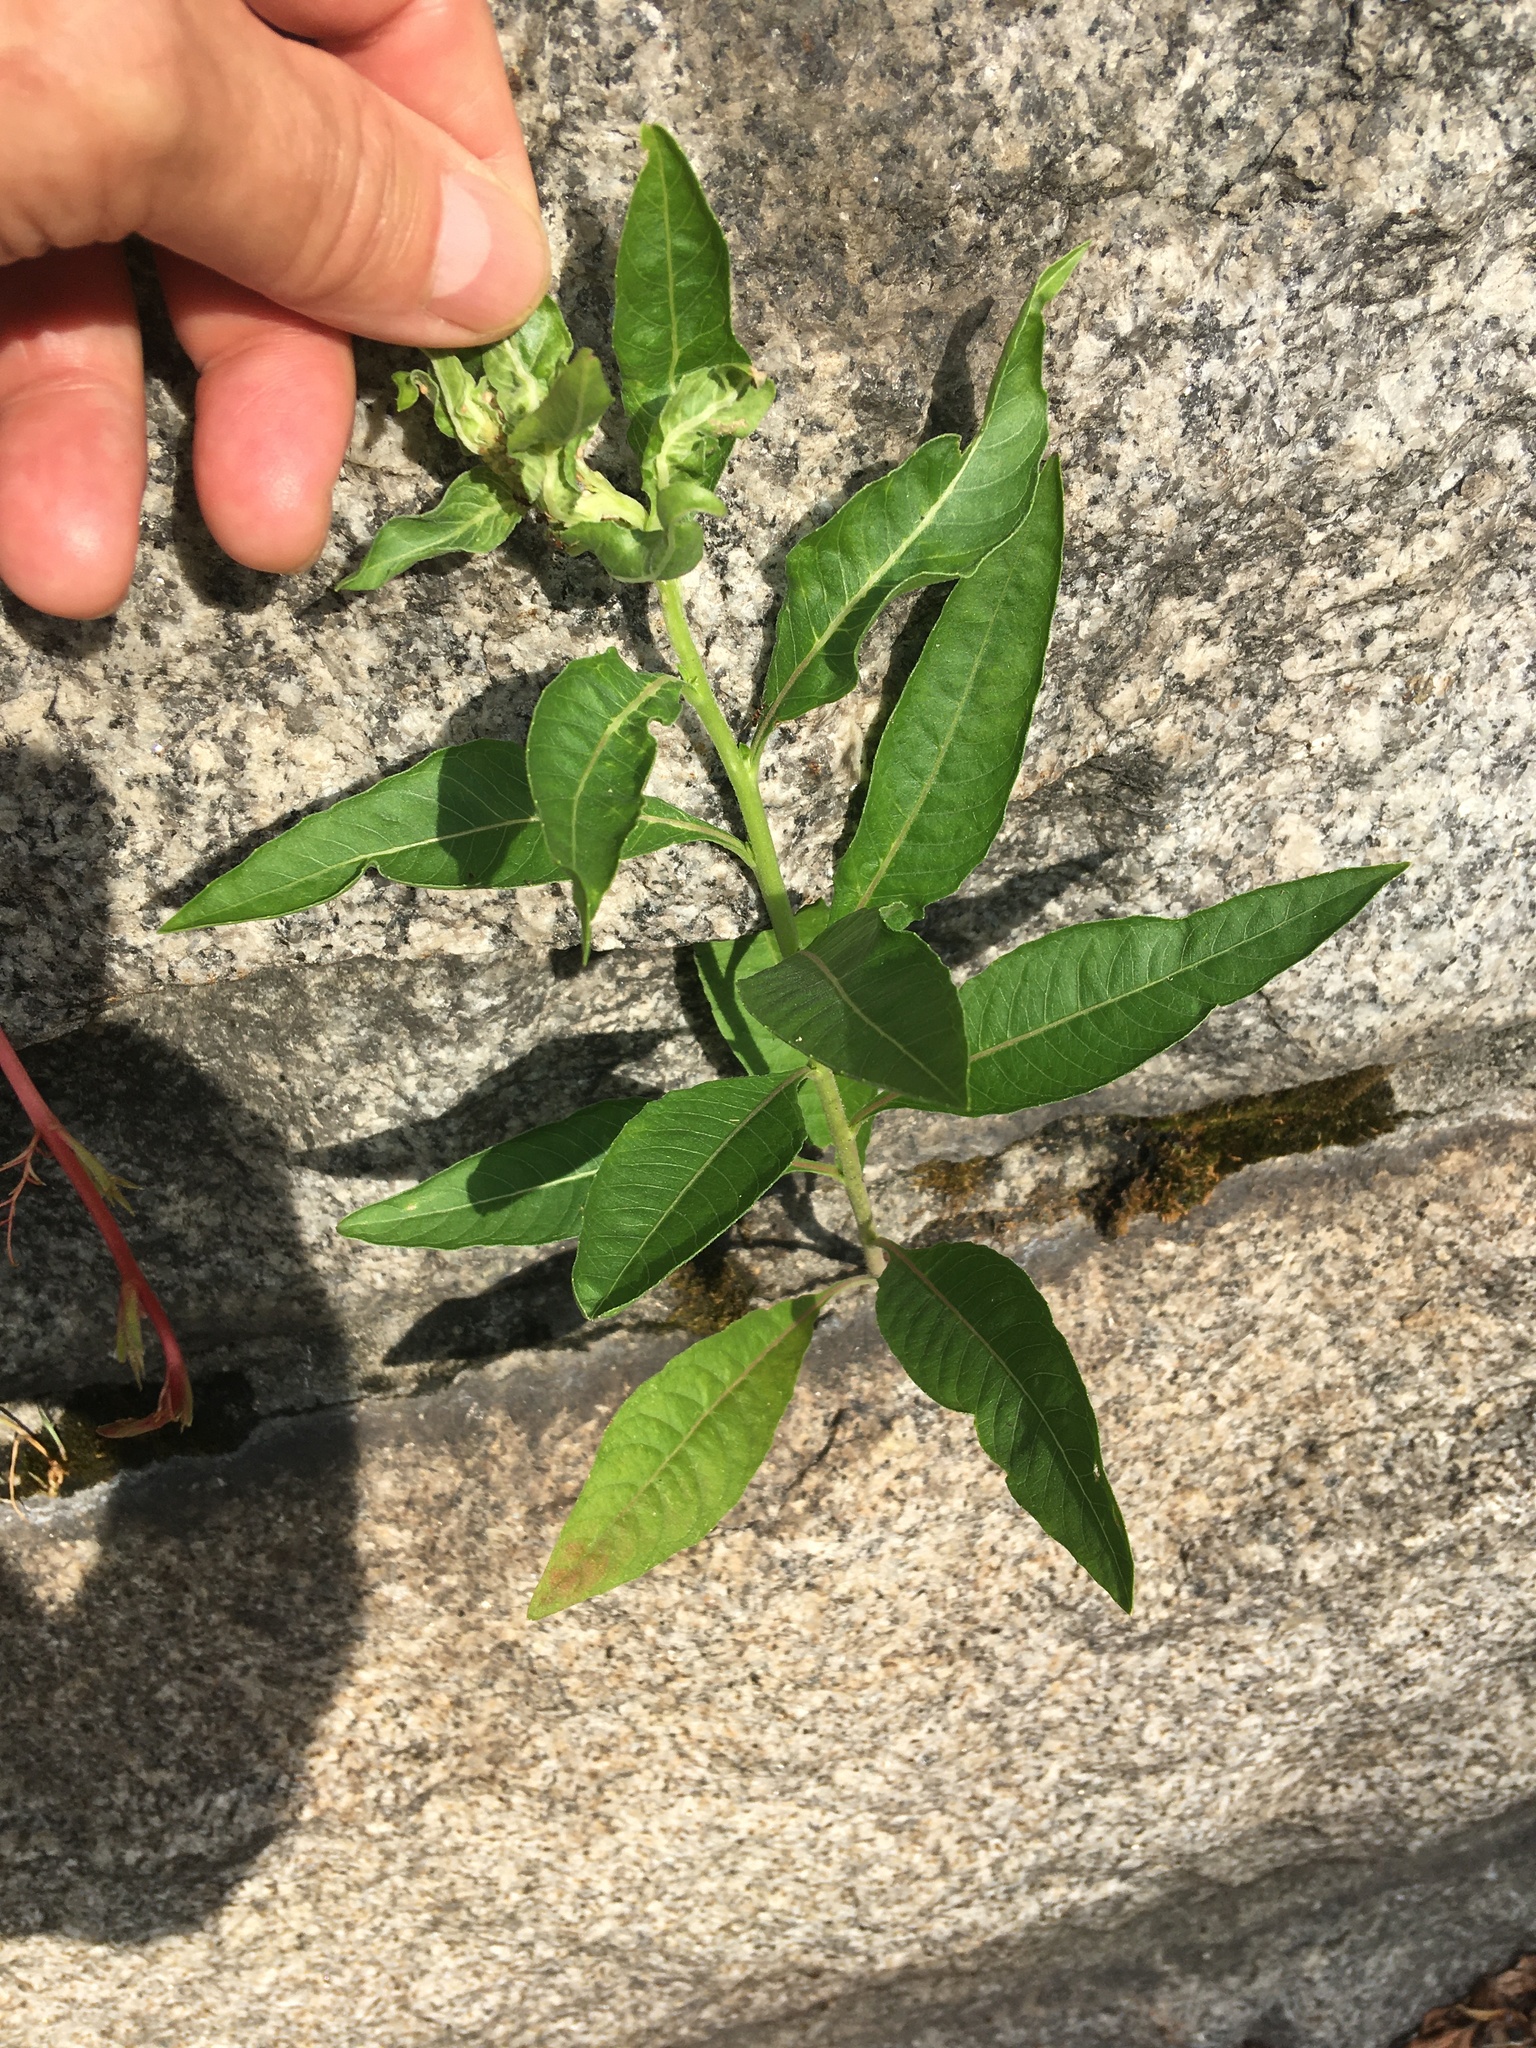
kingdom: Plantae
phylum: Tracheophyta
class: Magnoliopsida
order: Myrtales
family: Onagraceae
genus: Oenothera
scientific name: Oenothera biennis
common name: Common evening-primrose
